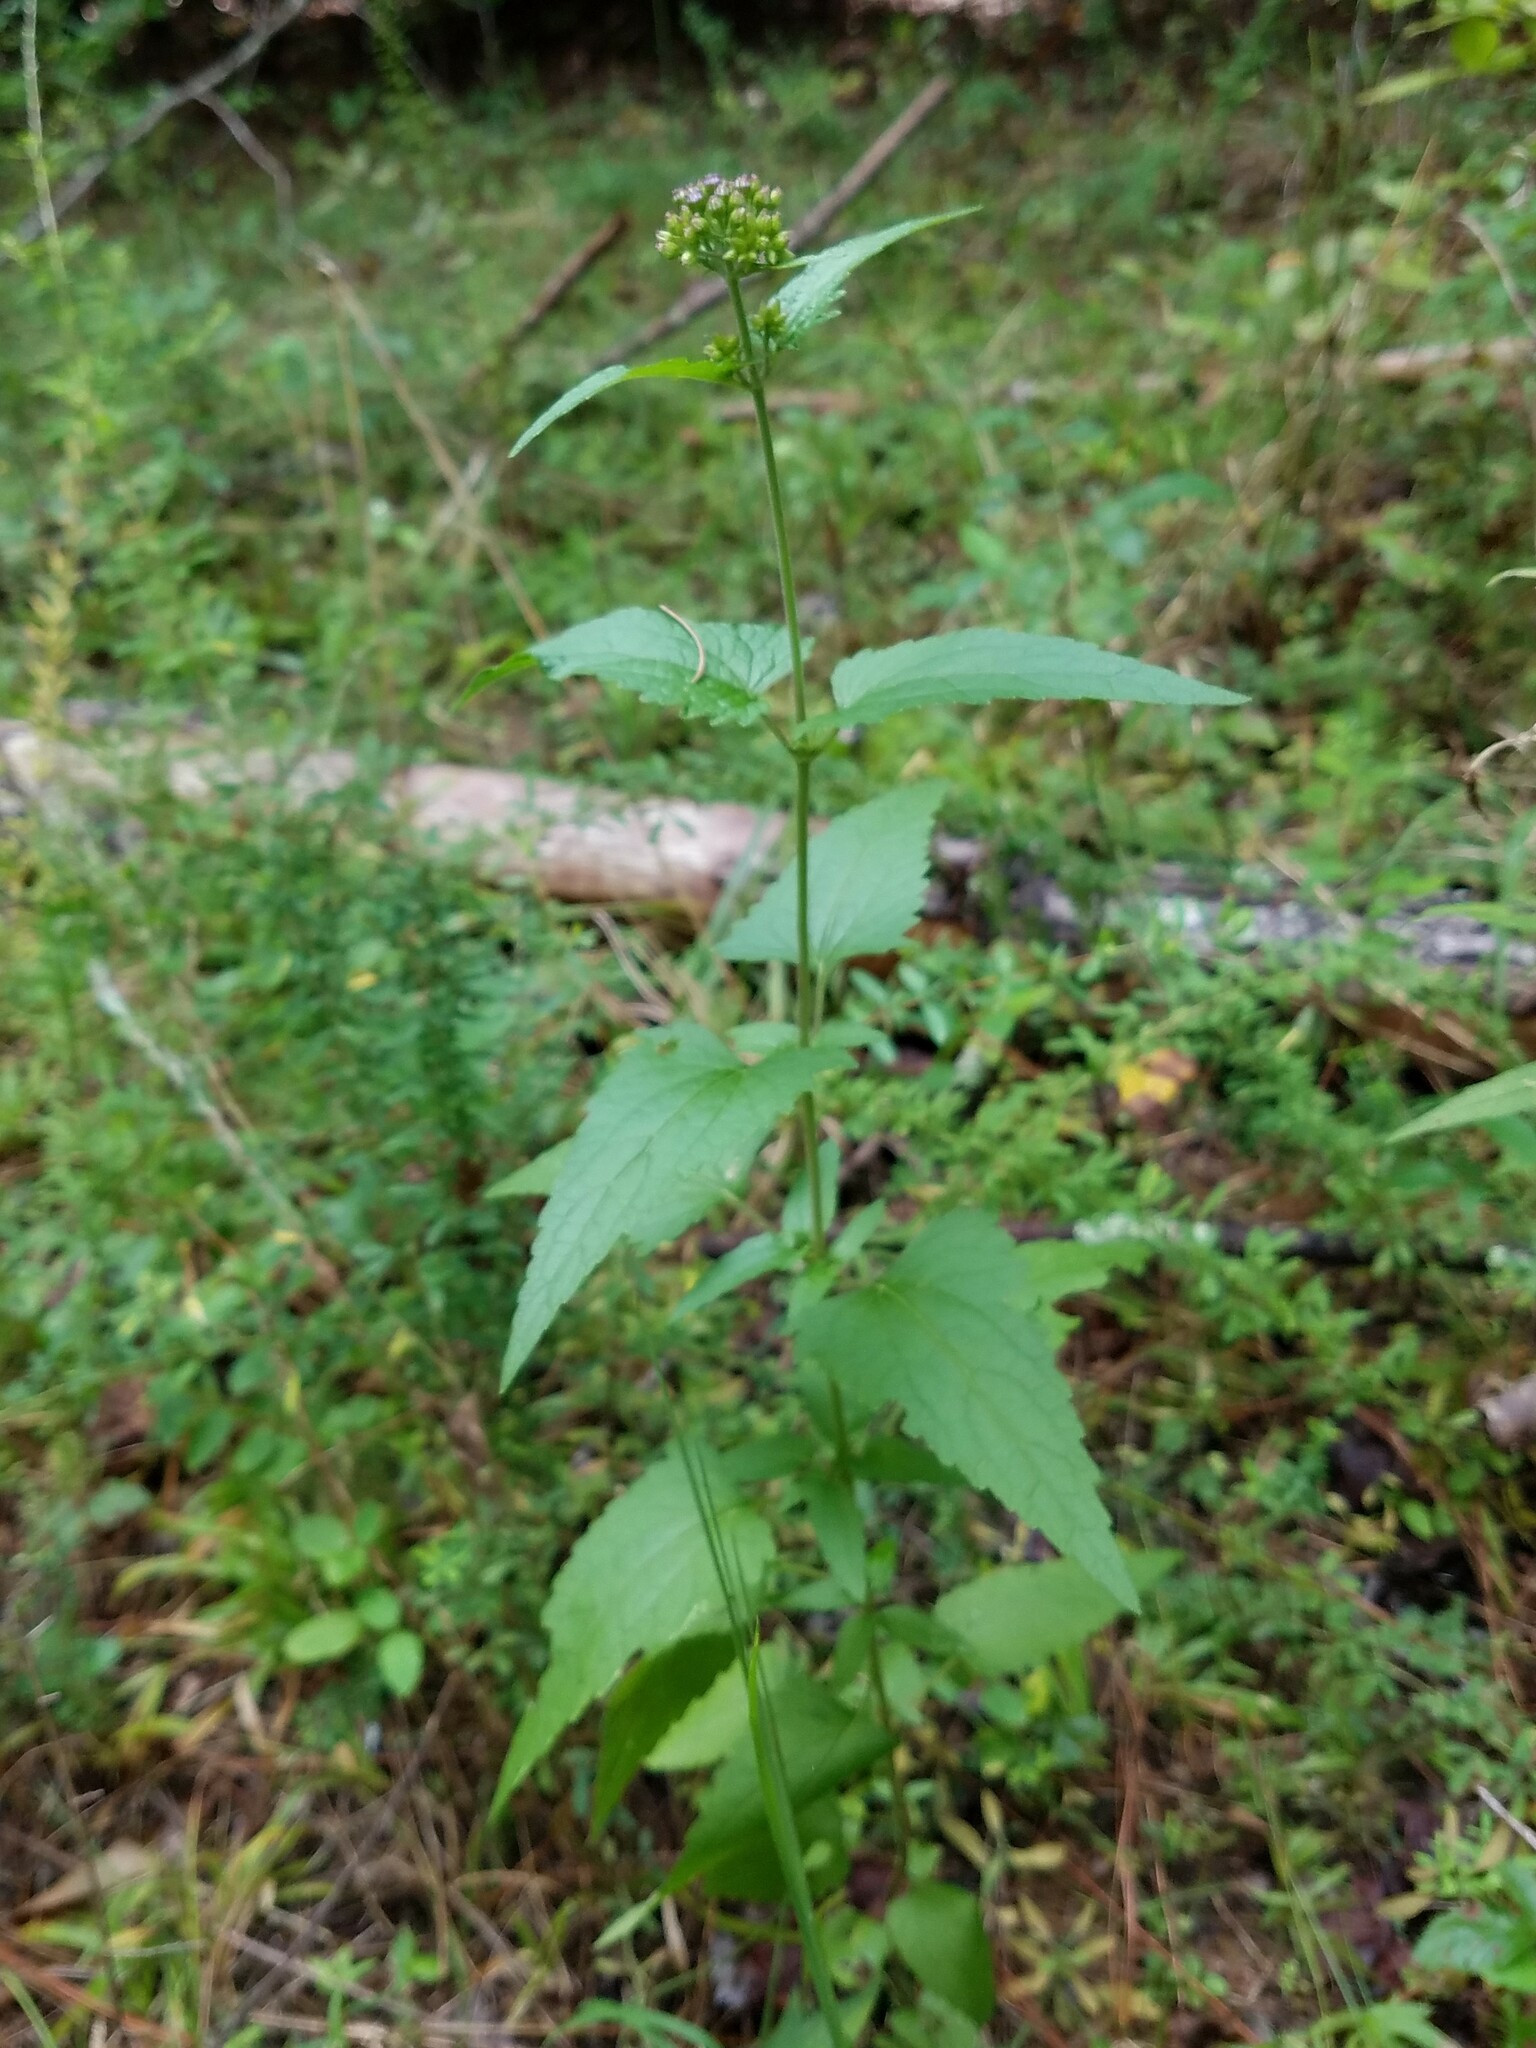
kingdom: Plantae
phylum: Tracheophyta
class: Magnoliopsida
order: Asterales
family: Asteraceae
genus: Conoclinium
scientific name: Conoclinium coelestinum
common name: Blue mistflower
